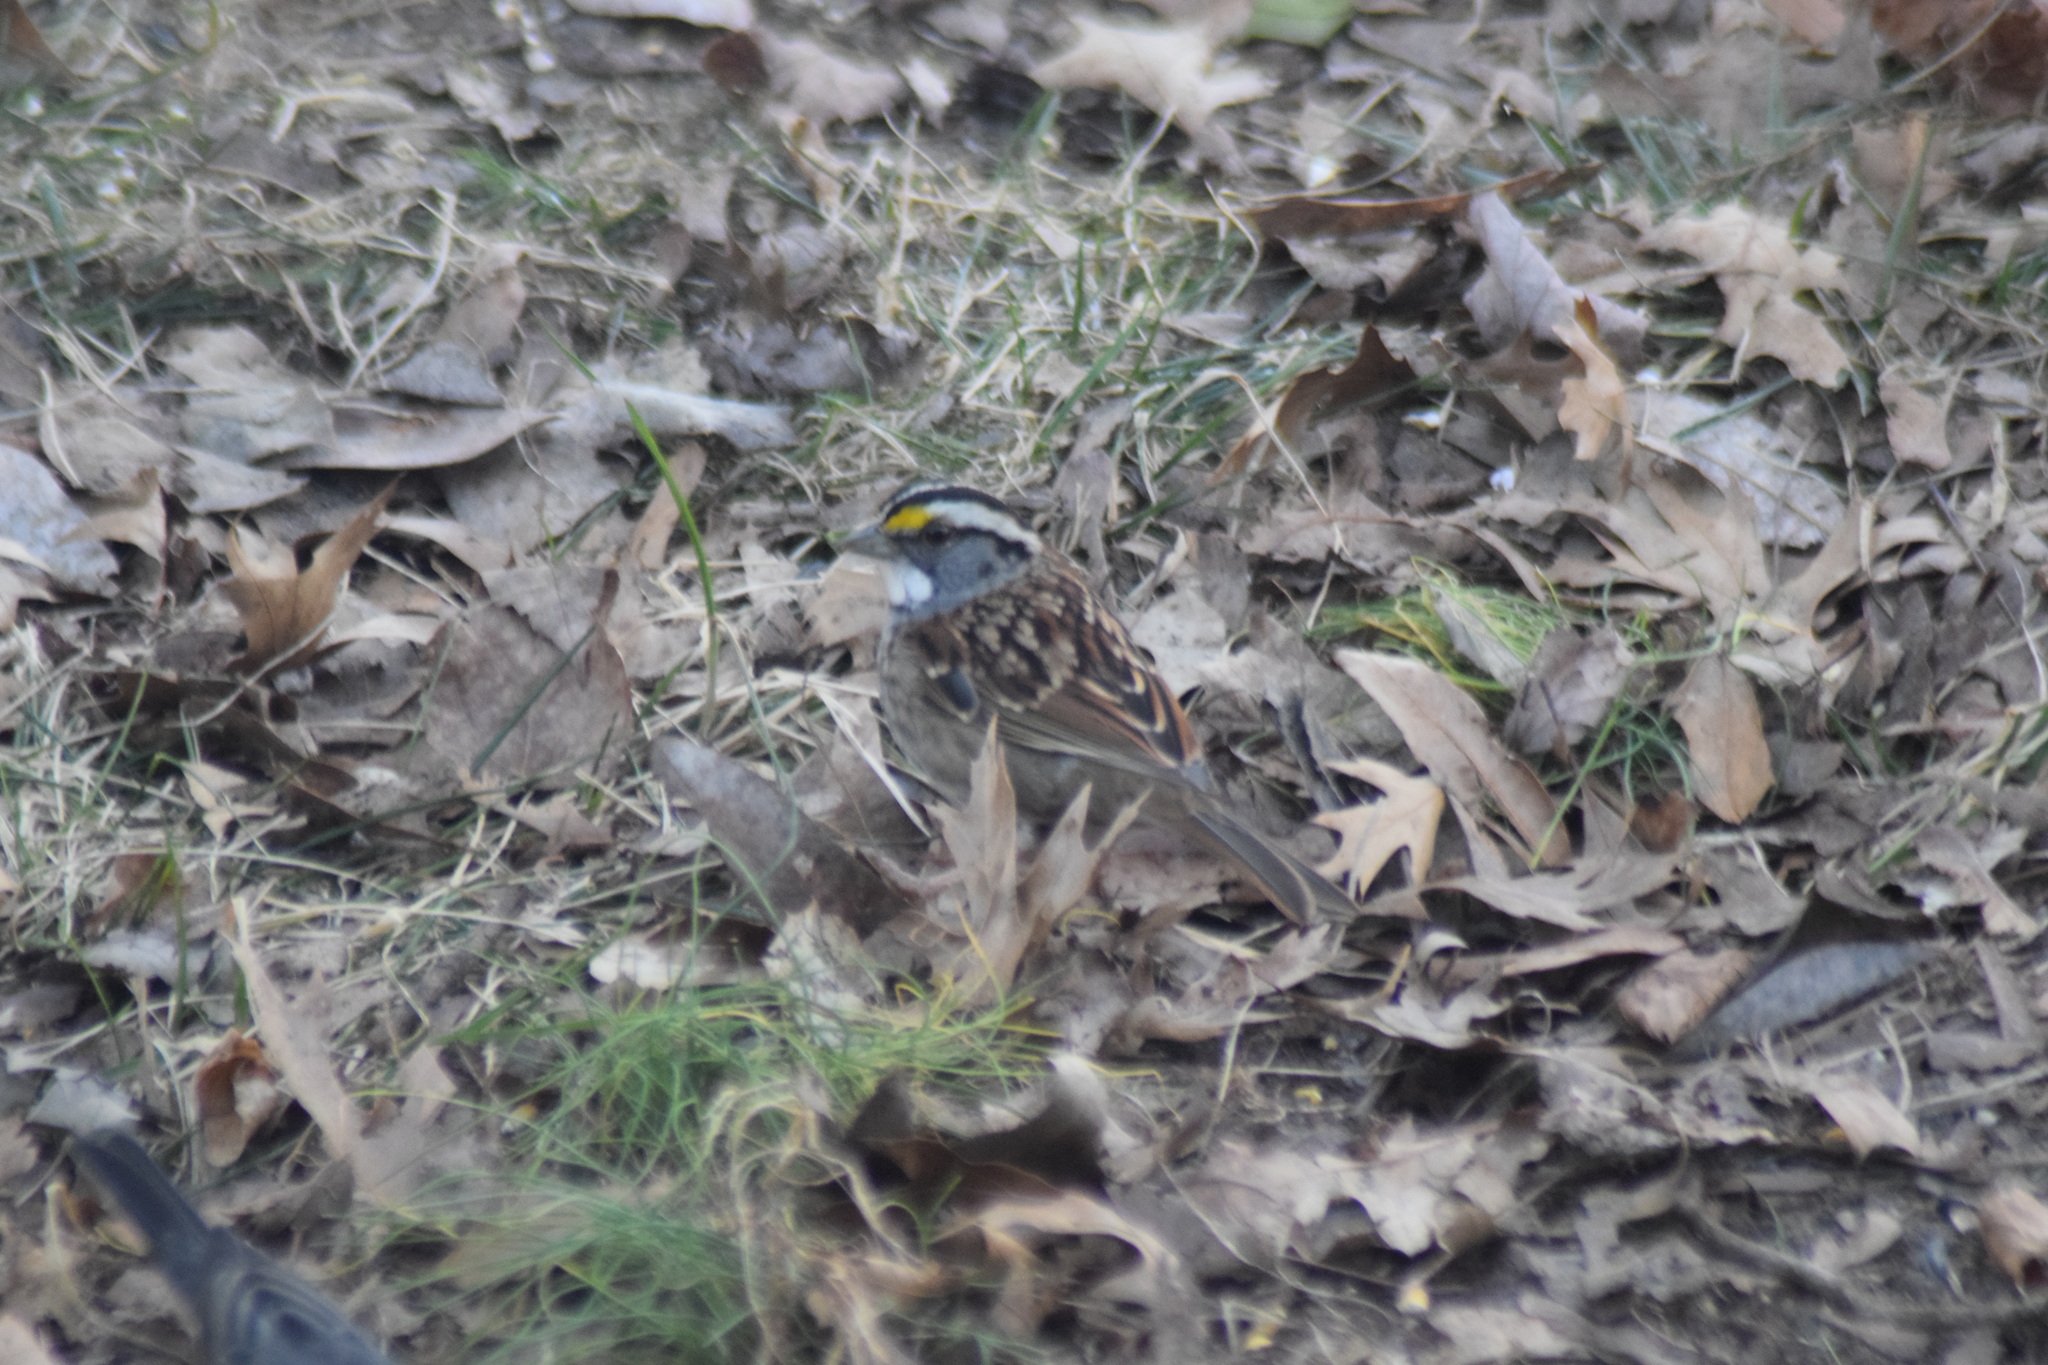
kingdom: Animalia
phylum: Chordata
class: Aves
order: Passeriformes
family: Passerellidae
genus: Zonotrichia
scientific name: Zonotrichia albicollis
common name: White-throated sparrow
